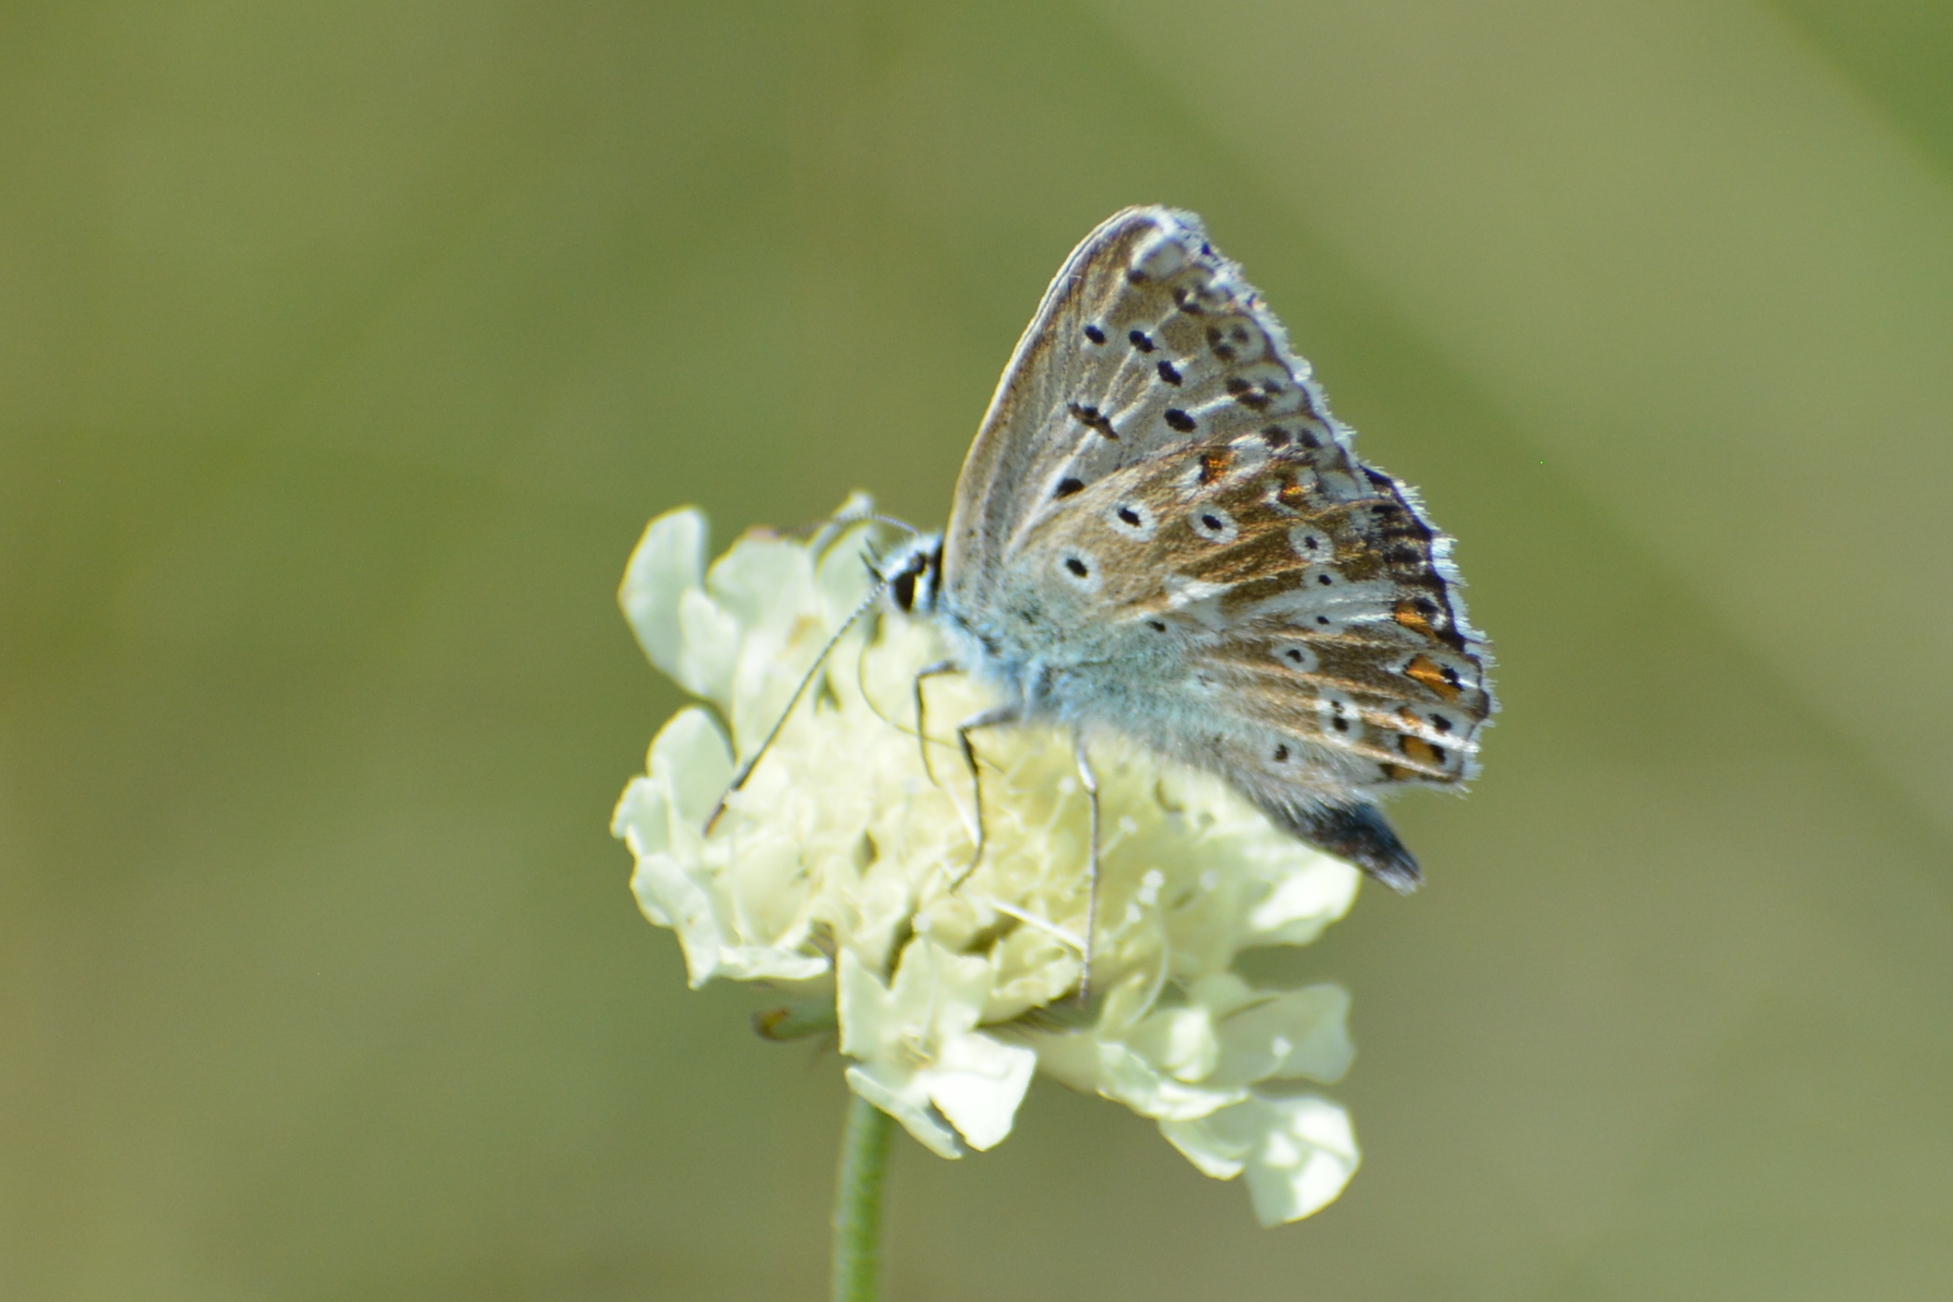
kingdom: Animalia
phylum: Arthropoda
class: Insecta
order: Lepidoptera
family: Lycaenidae
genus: Lysandra
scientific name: Lysandra coridon
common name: Chalkhill blue
